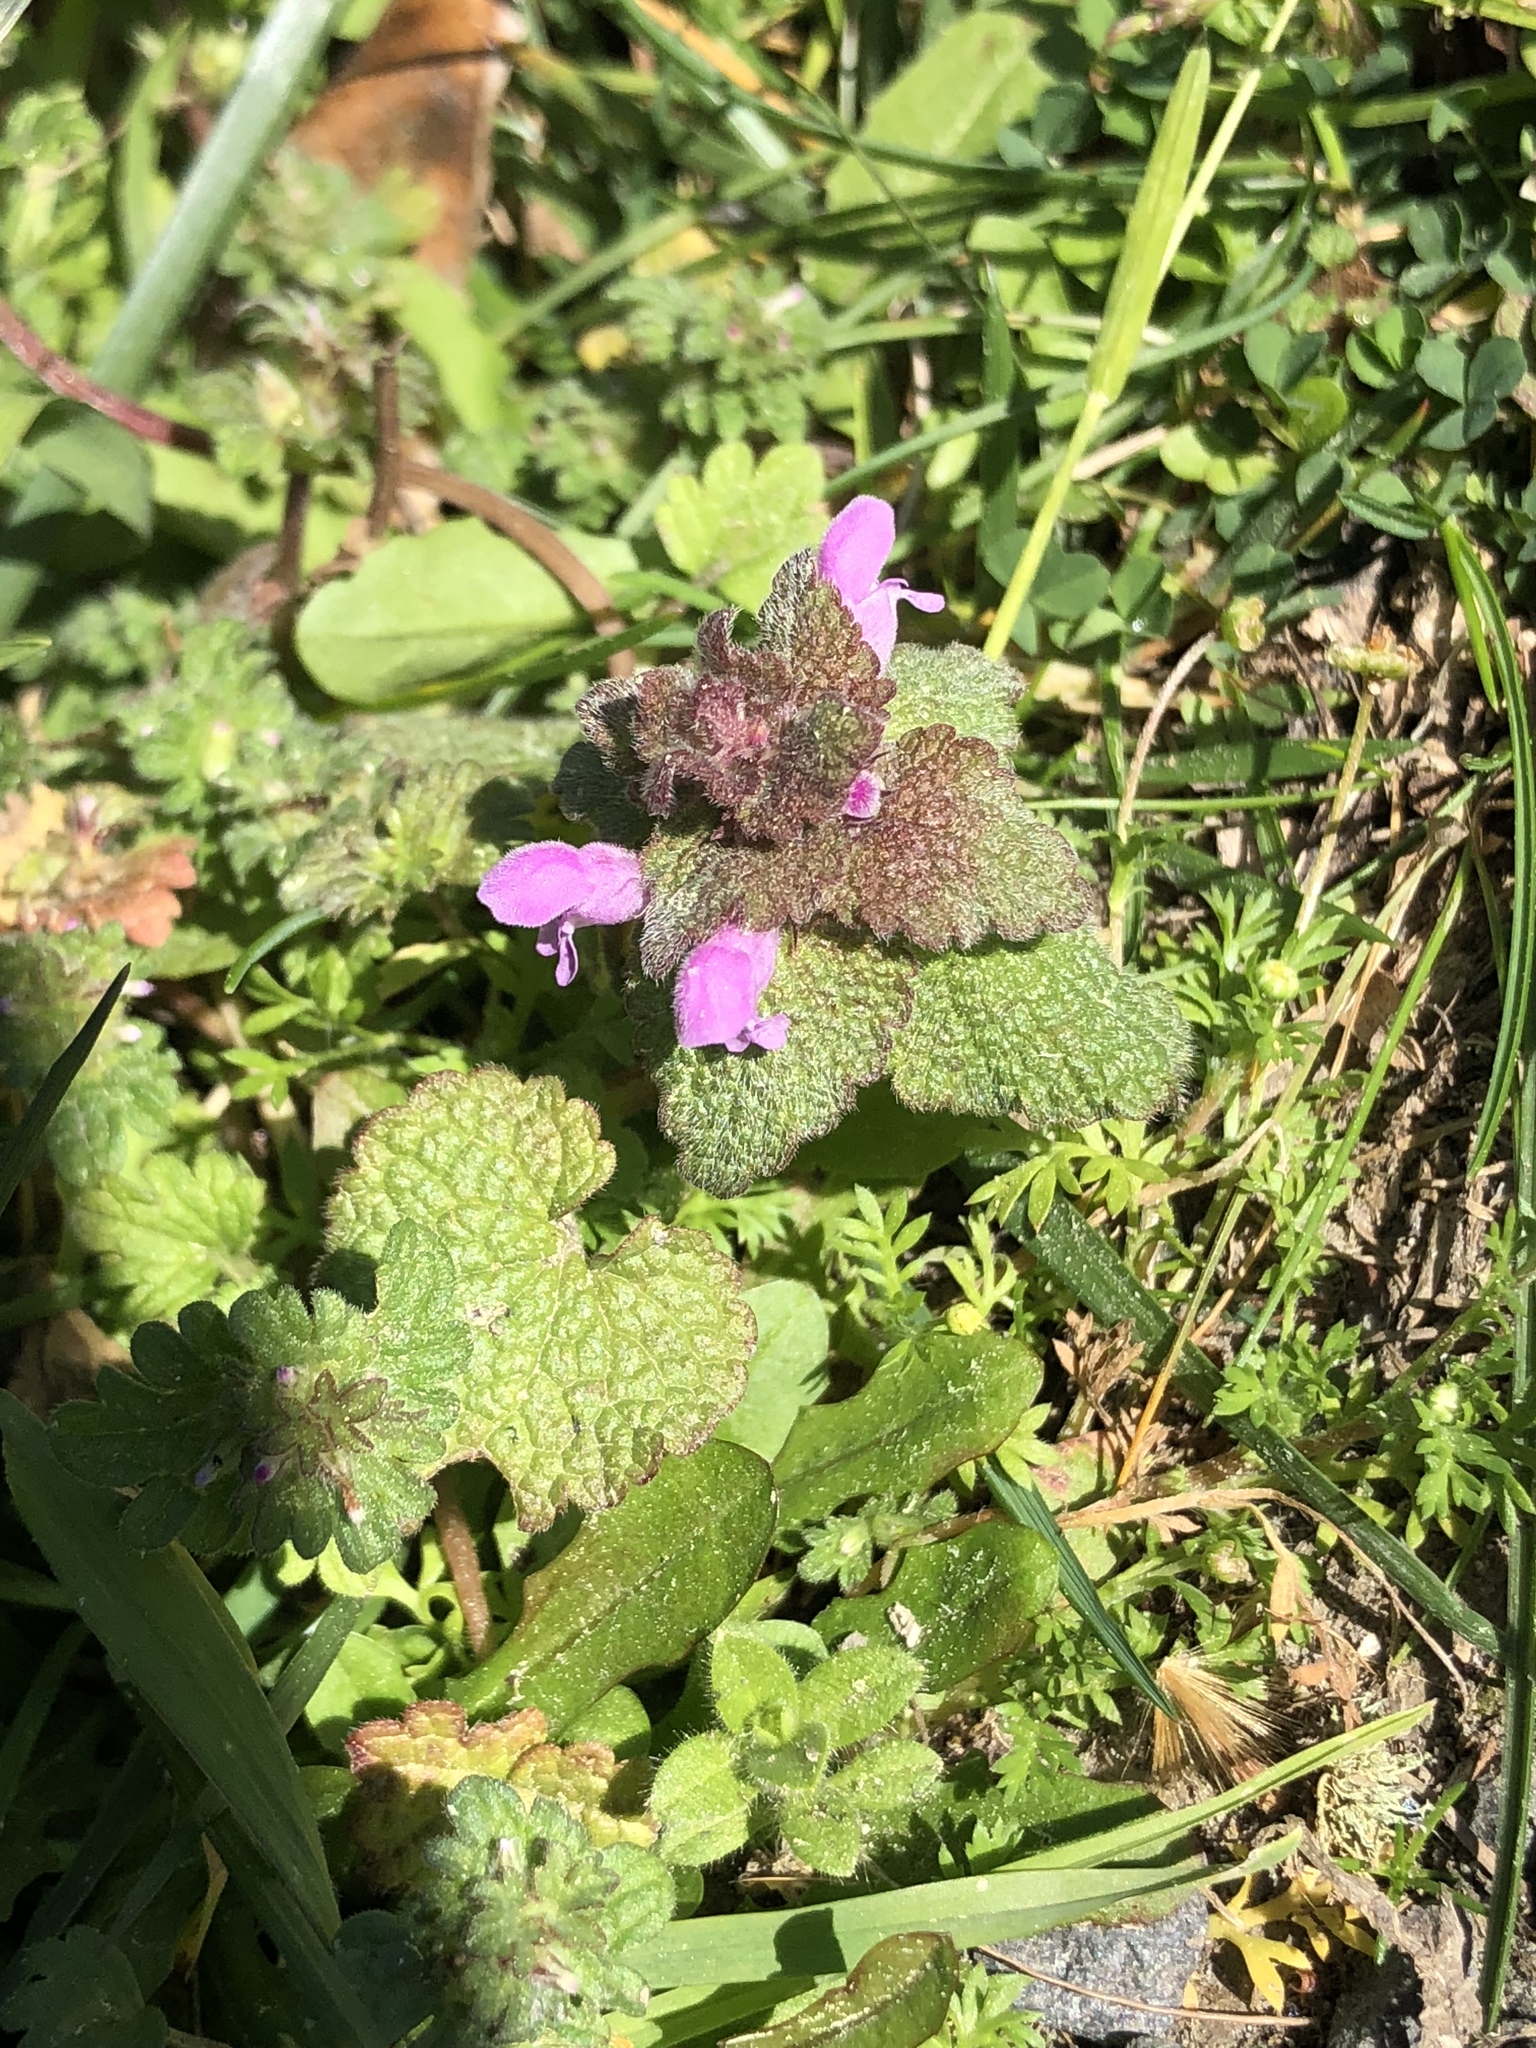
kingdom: Plantae
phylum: Tracheophyta
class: Magnoliopsida
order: Lamiales
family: Lamiaceae
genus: Lamium
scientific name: Lamium purpureum
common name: Red dead-nettle
